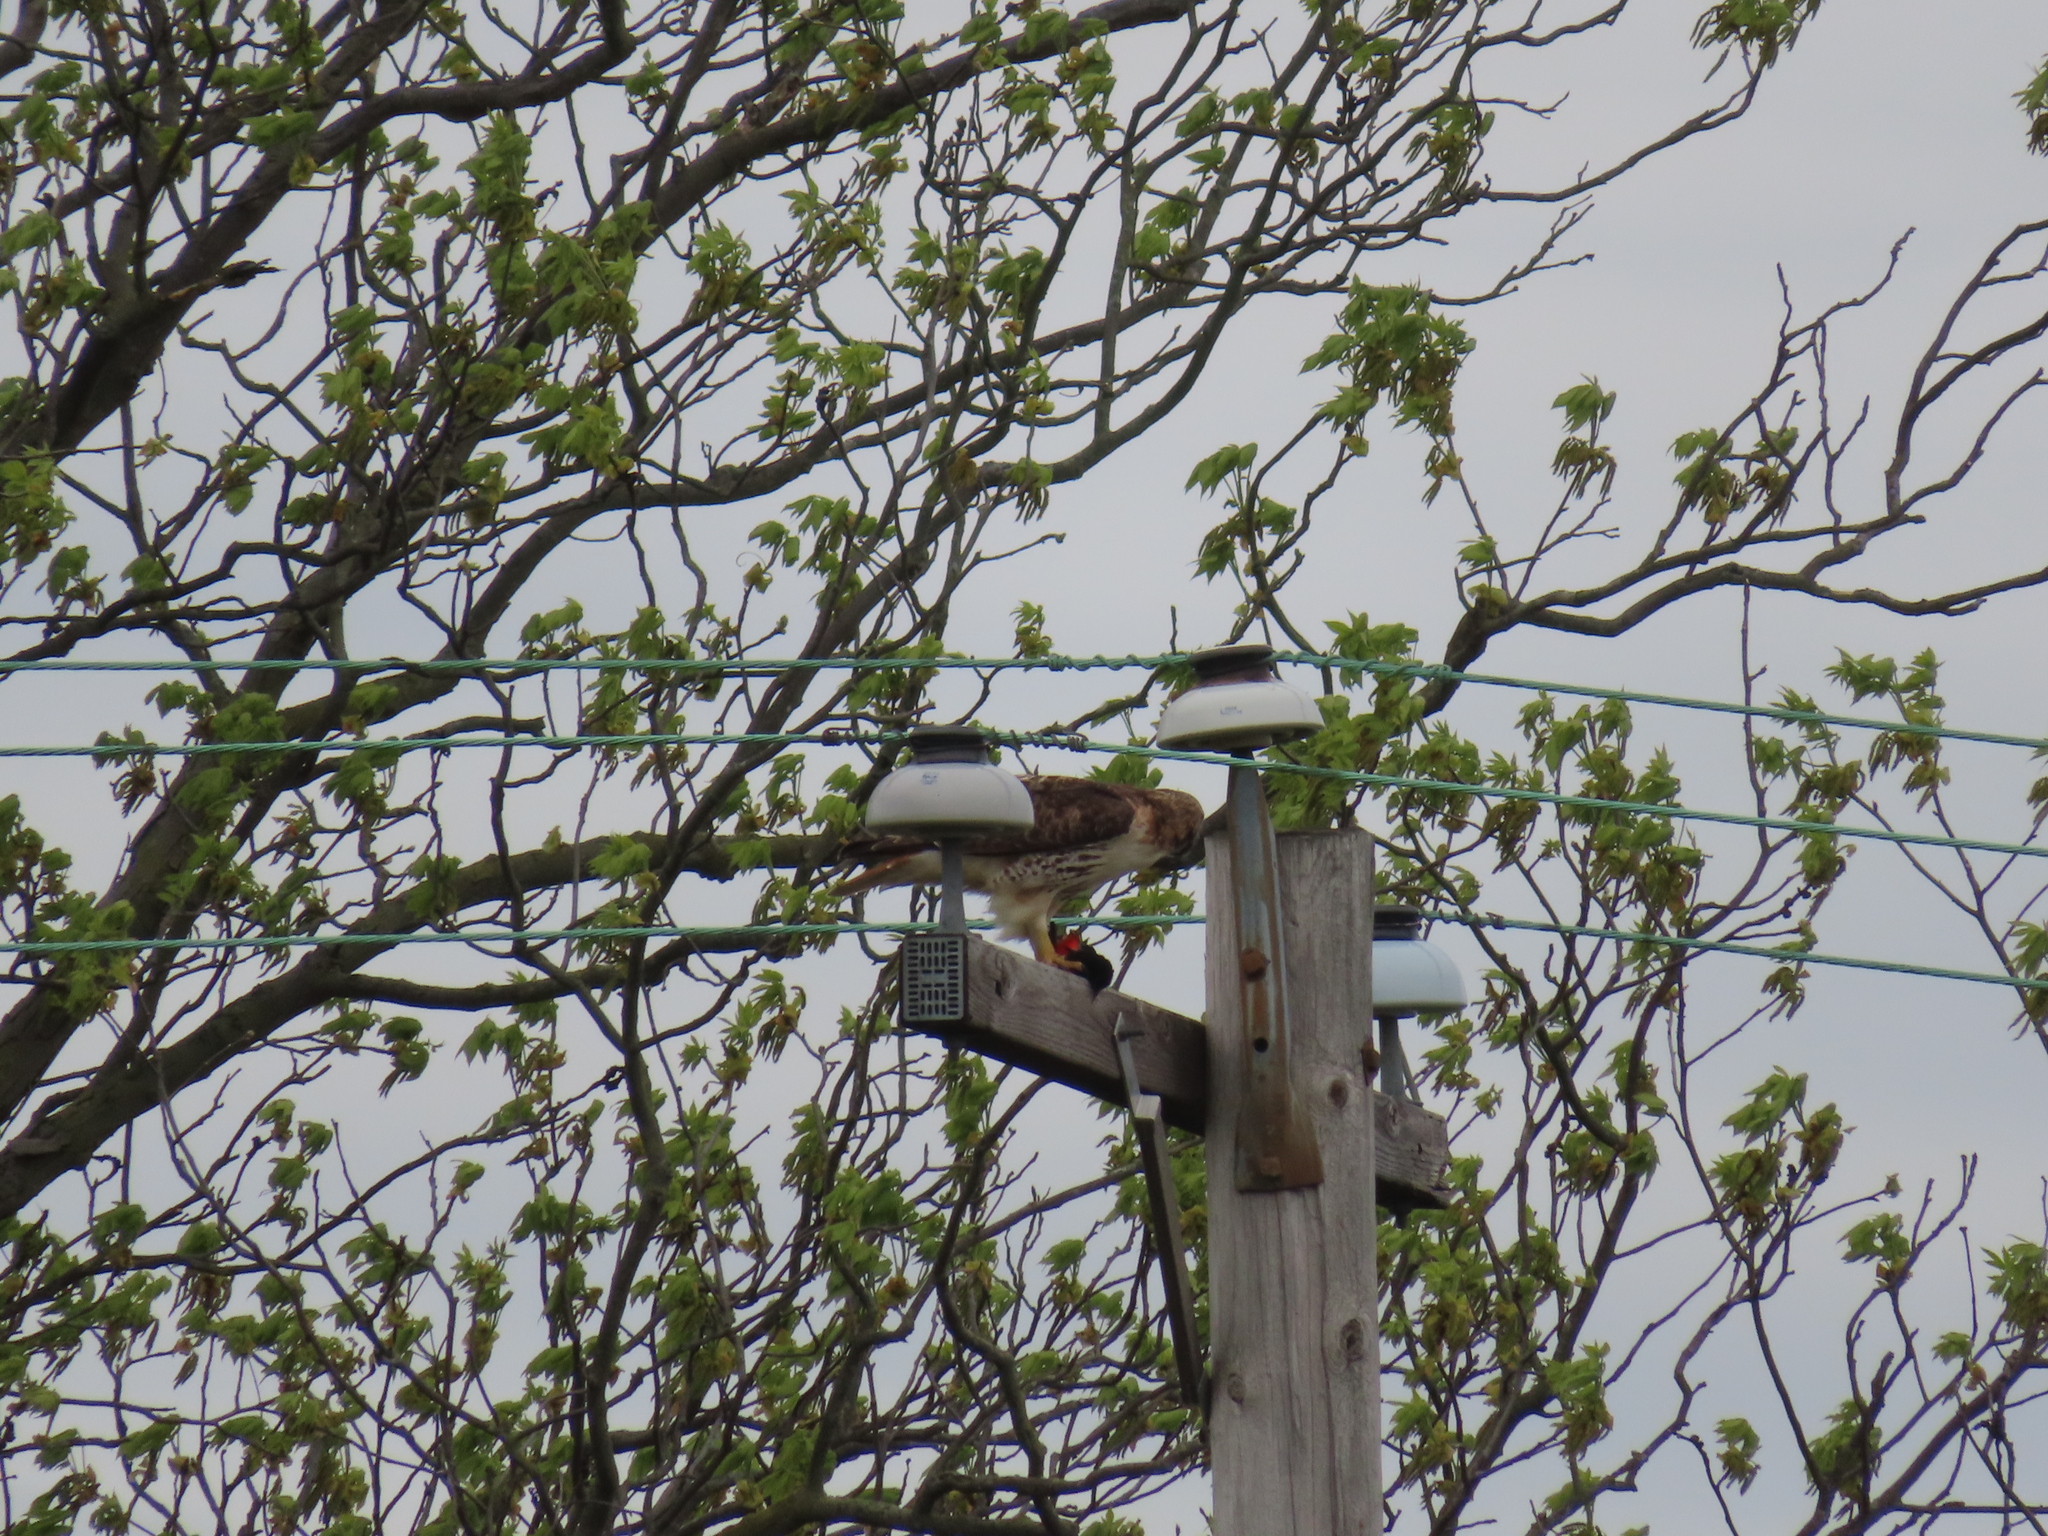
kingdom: Animalia
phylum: Chordata
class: Aves
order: Accipitriformes
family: Accipitridae
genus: Buteo
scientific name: Buteo jamaicensis
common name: Red-tailed hawk
